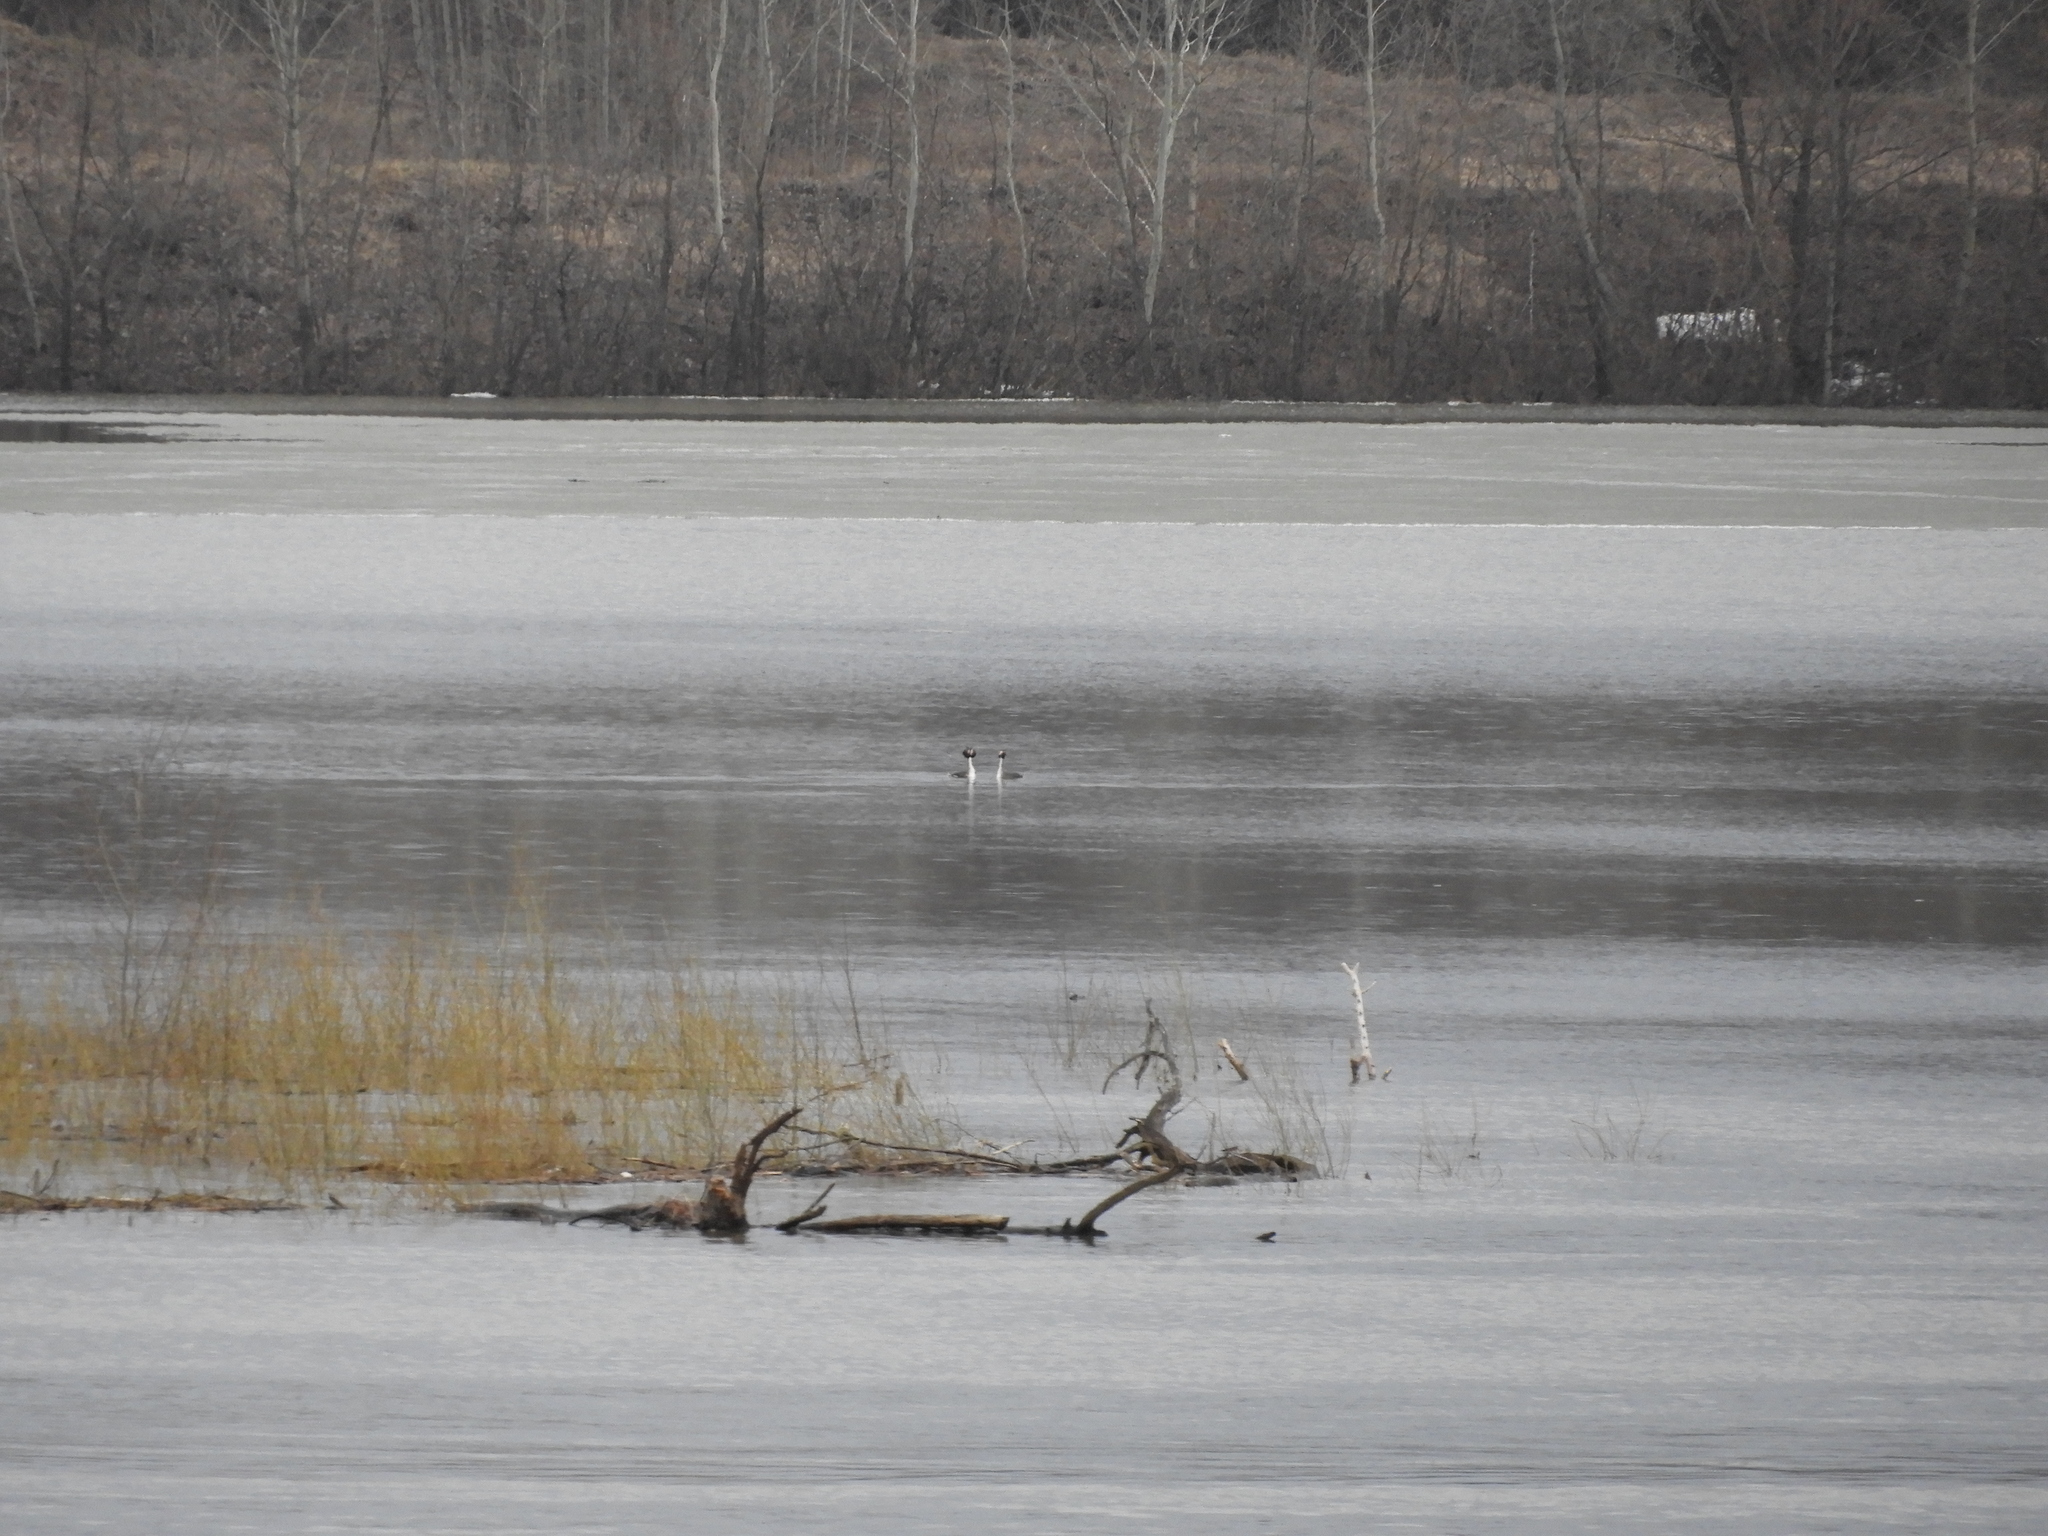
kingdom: Animalia
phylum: Chordata
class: Aves
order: Podicipediformes
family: Podicipedidae
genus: Podiceps
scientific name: Podiceps cristatus
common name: Great crested grebe
